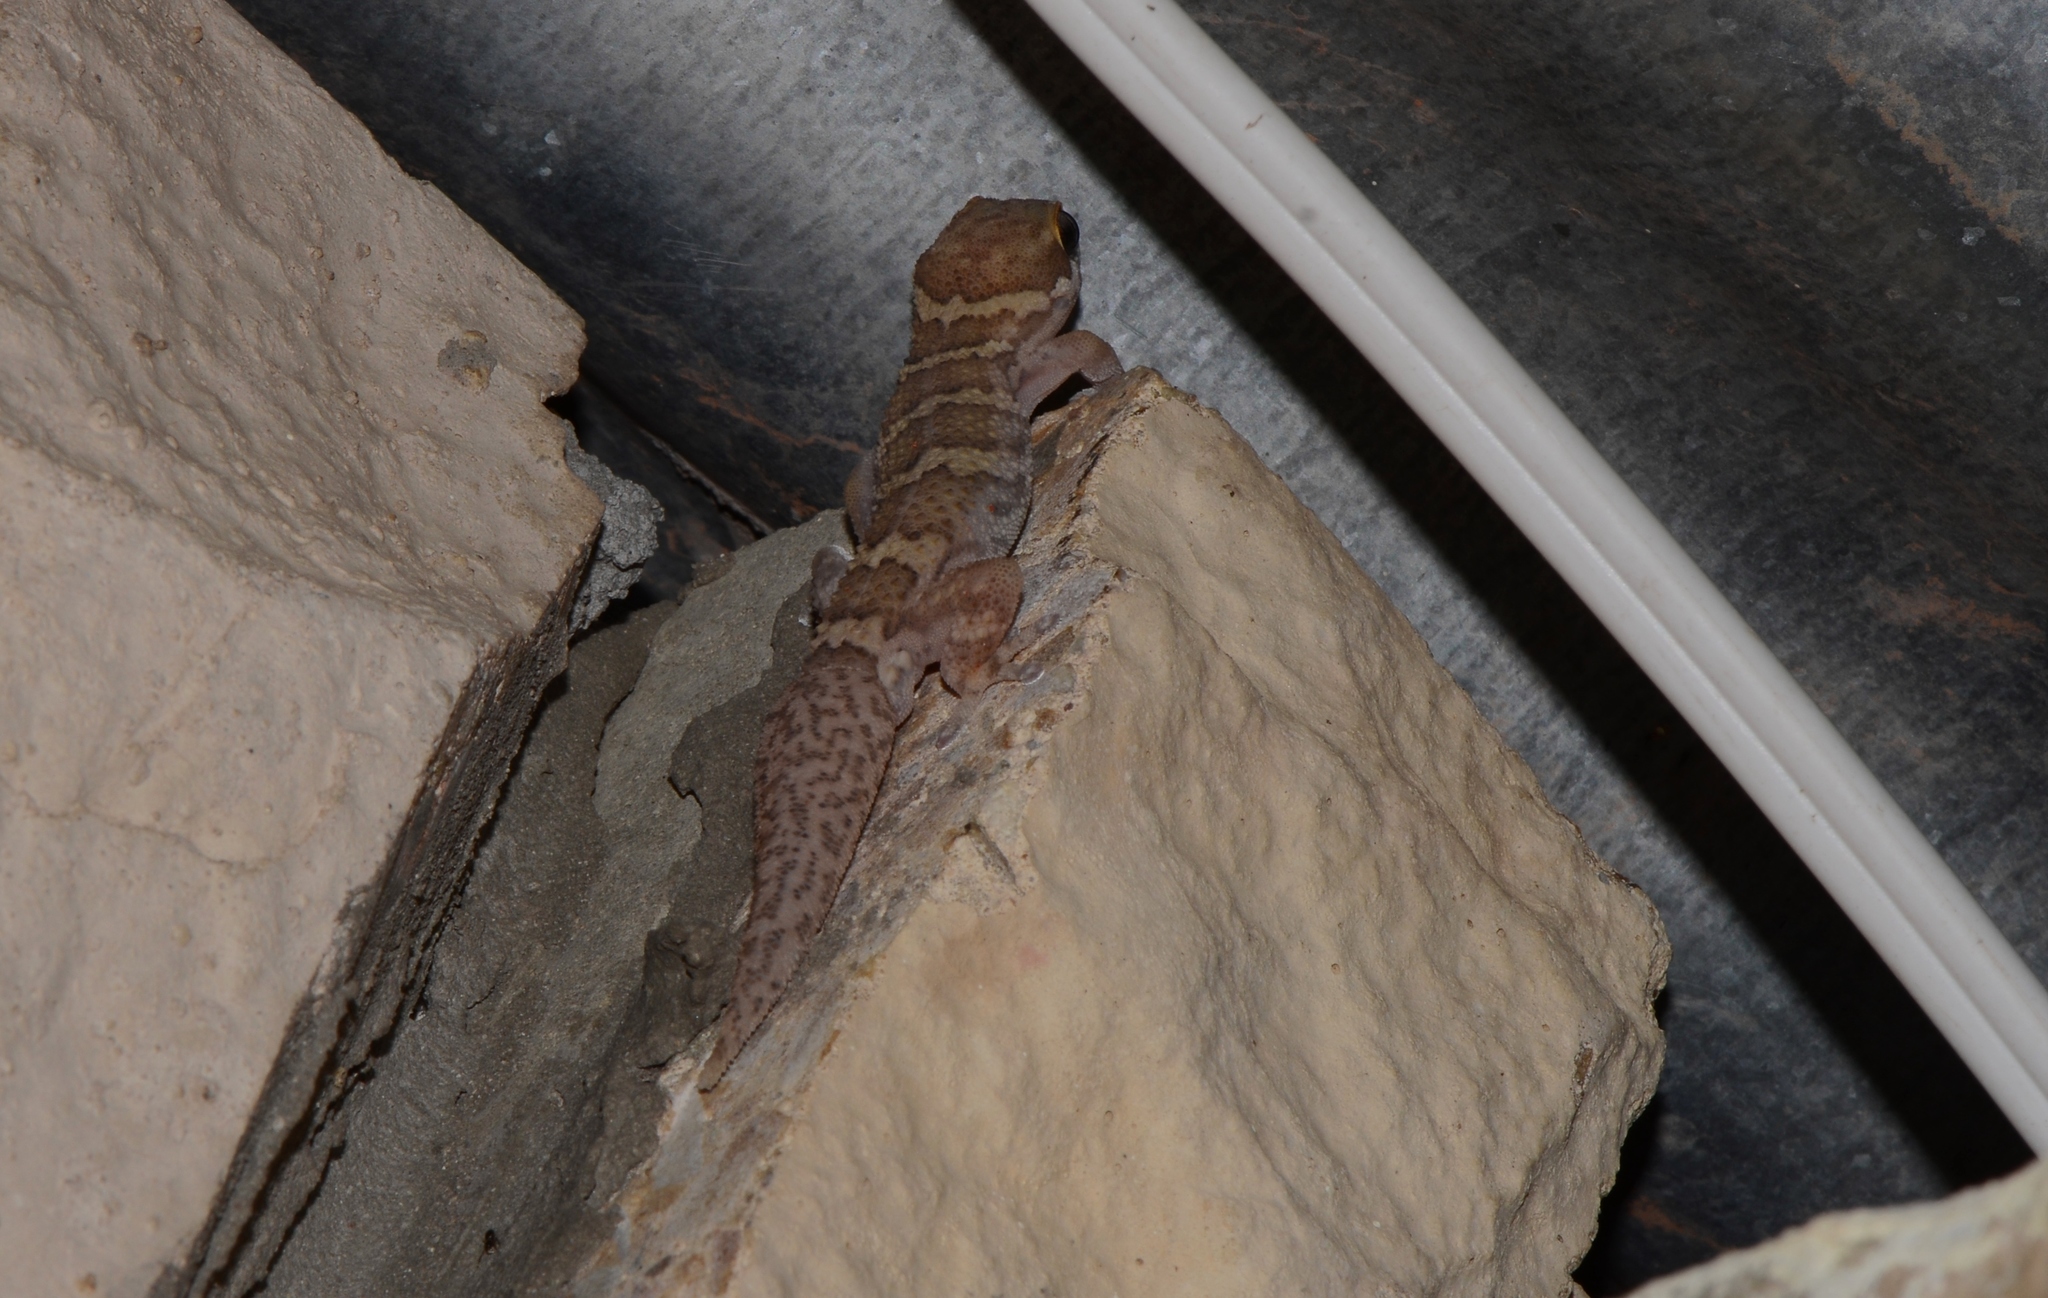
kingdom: Animalia
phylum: Chordata
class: Squamata
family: Gekkonidae
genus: Pachydactylus
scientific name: Pachydactylus formosus
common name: Southern rough gecko
